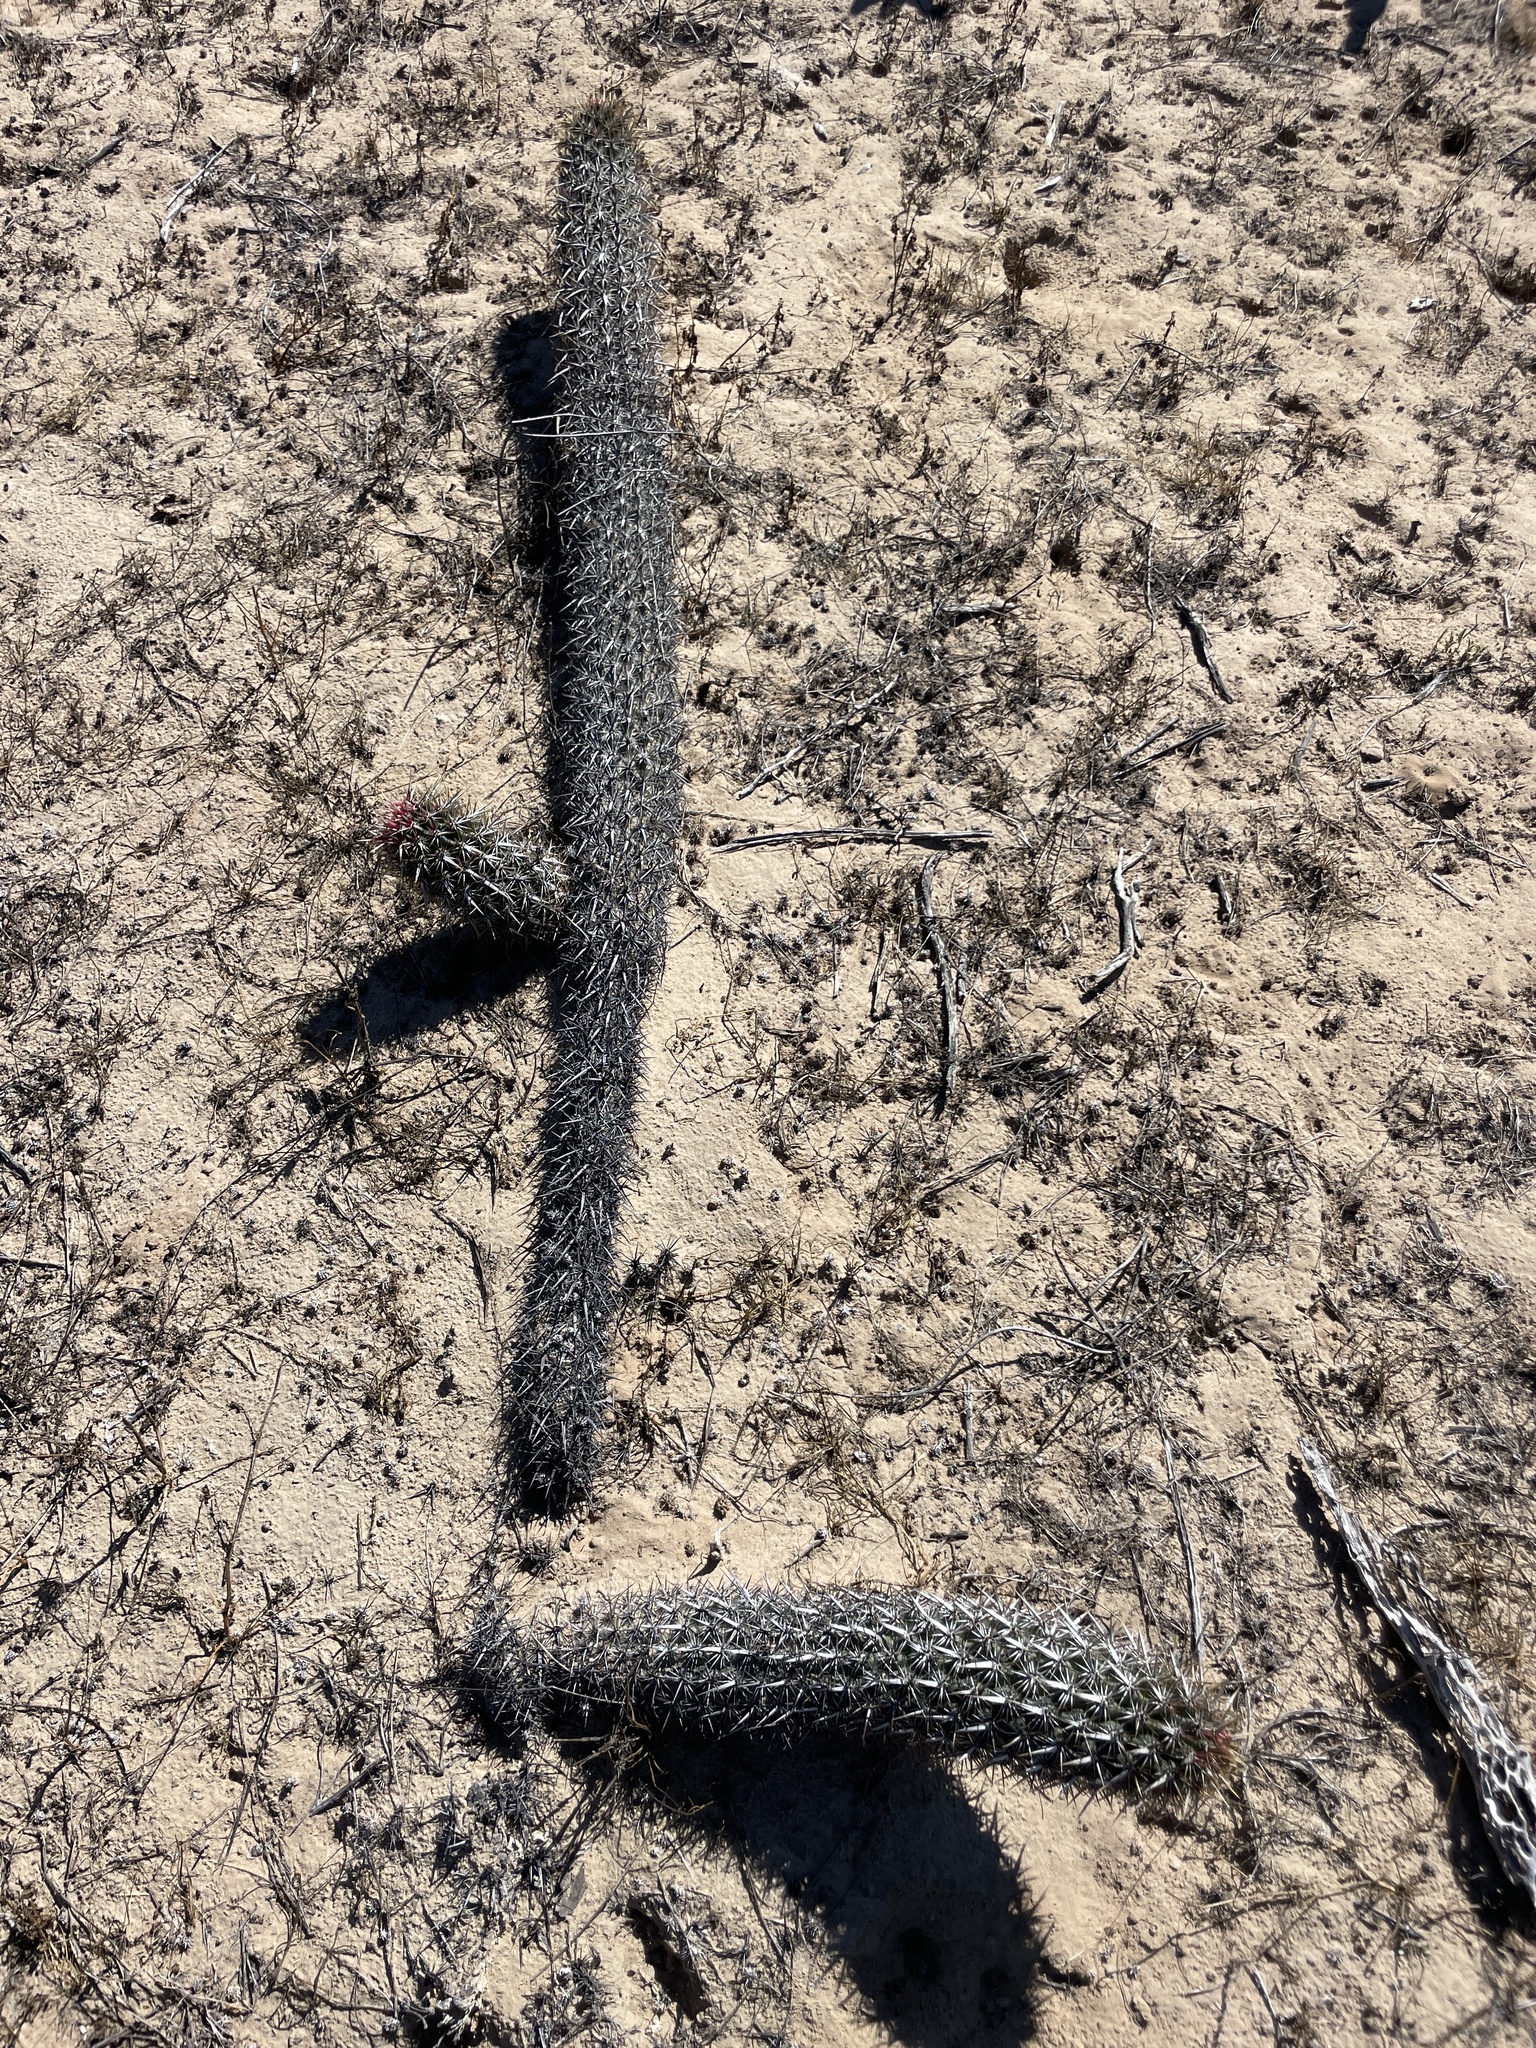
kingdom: Plantae
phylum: Tracheophyta
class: Magnoliopsida
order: Caryophyllales
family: Cactaceae
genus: Stenocereus
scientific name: Stenocereus eruca
